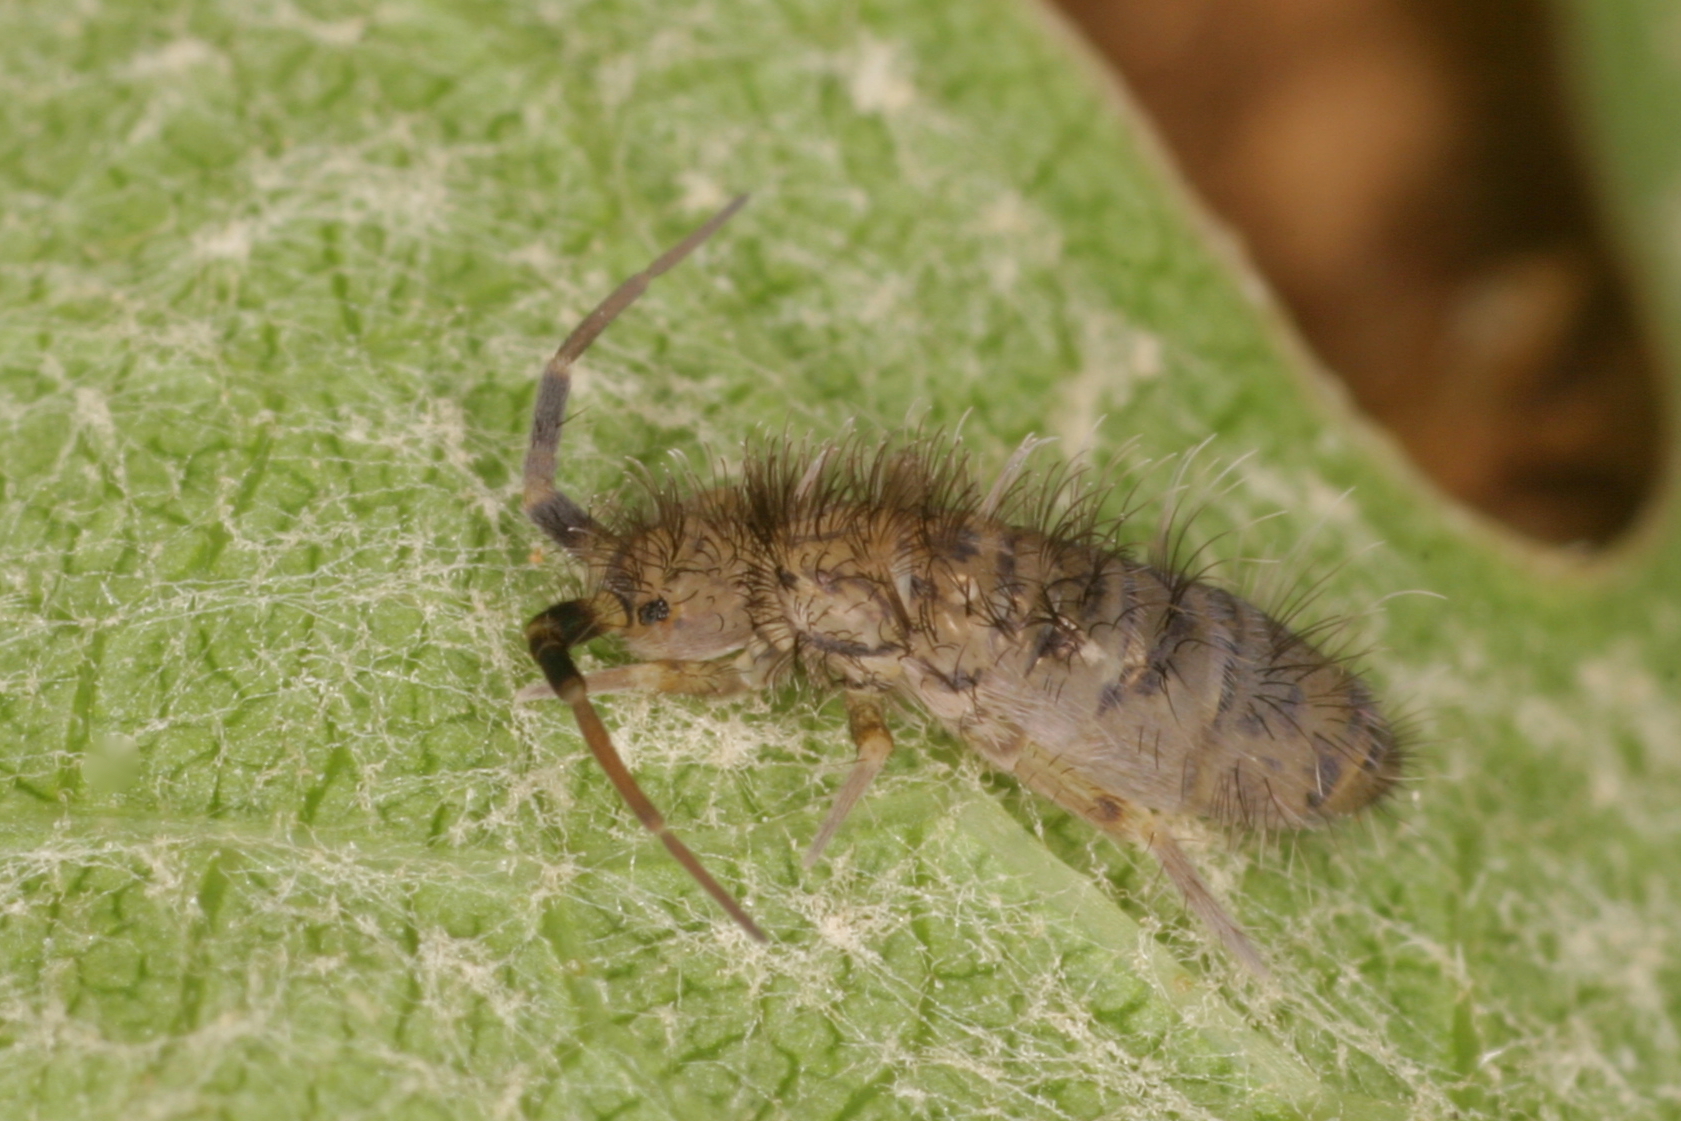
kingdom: Animalia
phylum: Arthropoda
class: Collembola
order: Entomobryomorpha
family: Orchesellidae
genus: Orchesella
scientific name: Orchesella villosa
